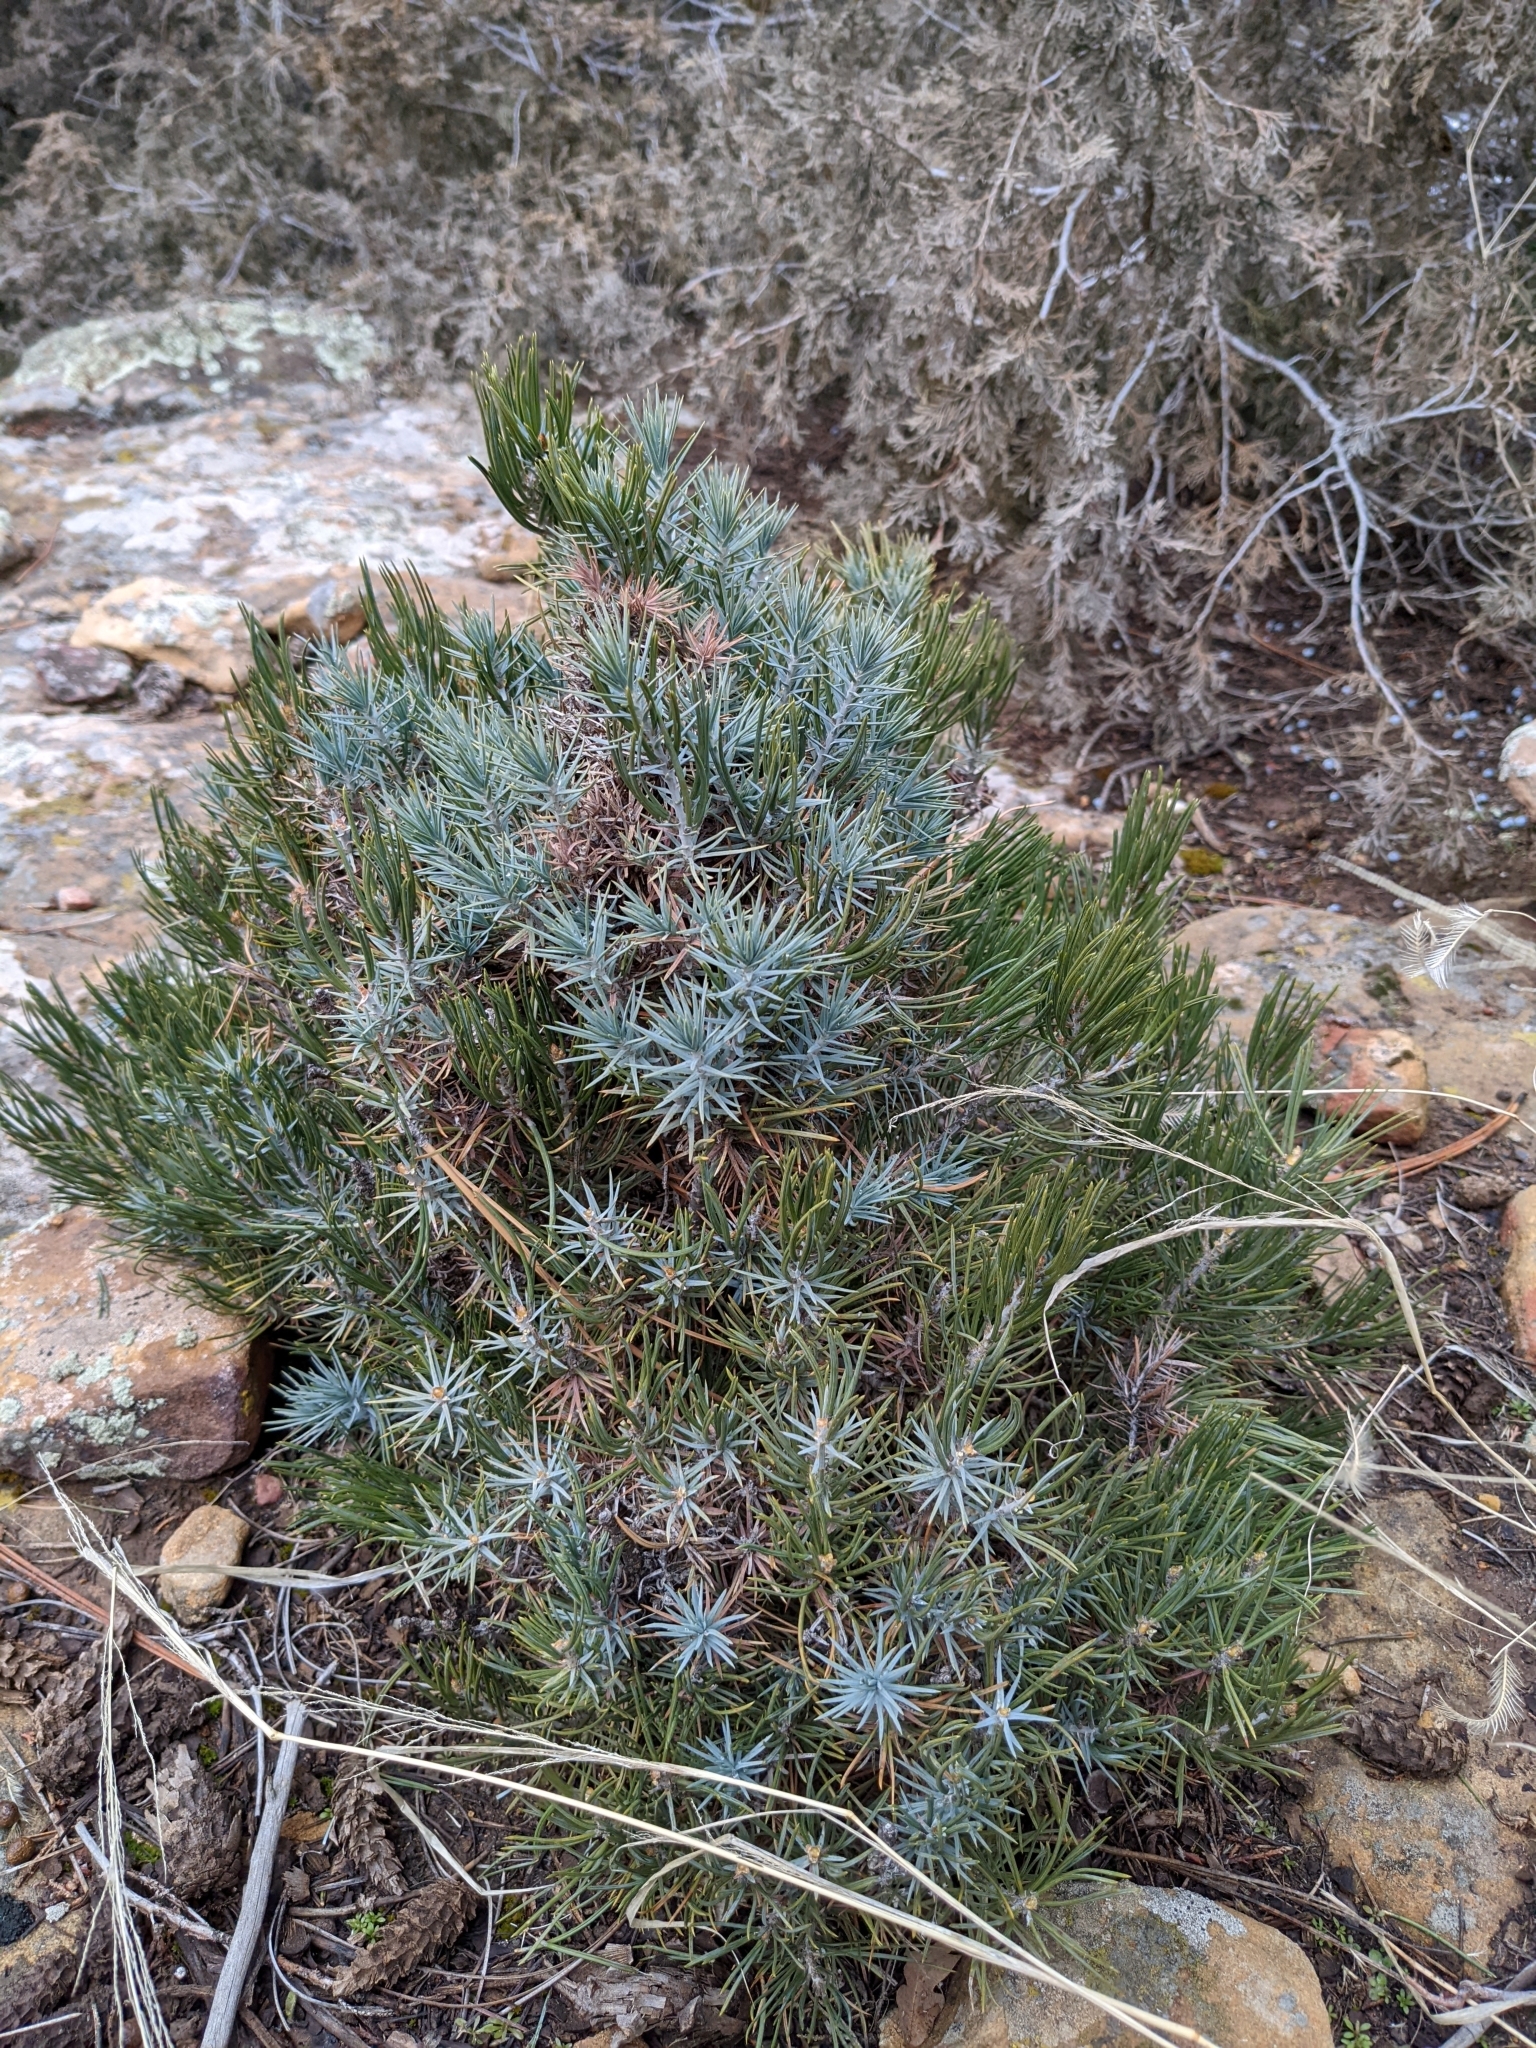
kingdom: Plantae
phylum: Tracheophyta
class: Pinopsida
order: Pinales
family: Pinaceae
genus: Pinus
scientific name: Pinus edulis
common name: Colorado pinyon
